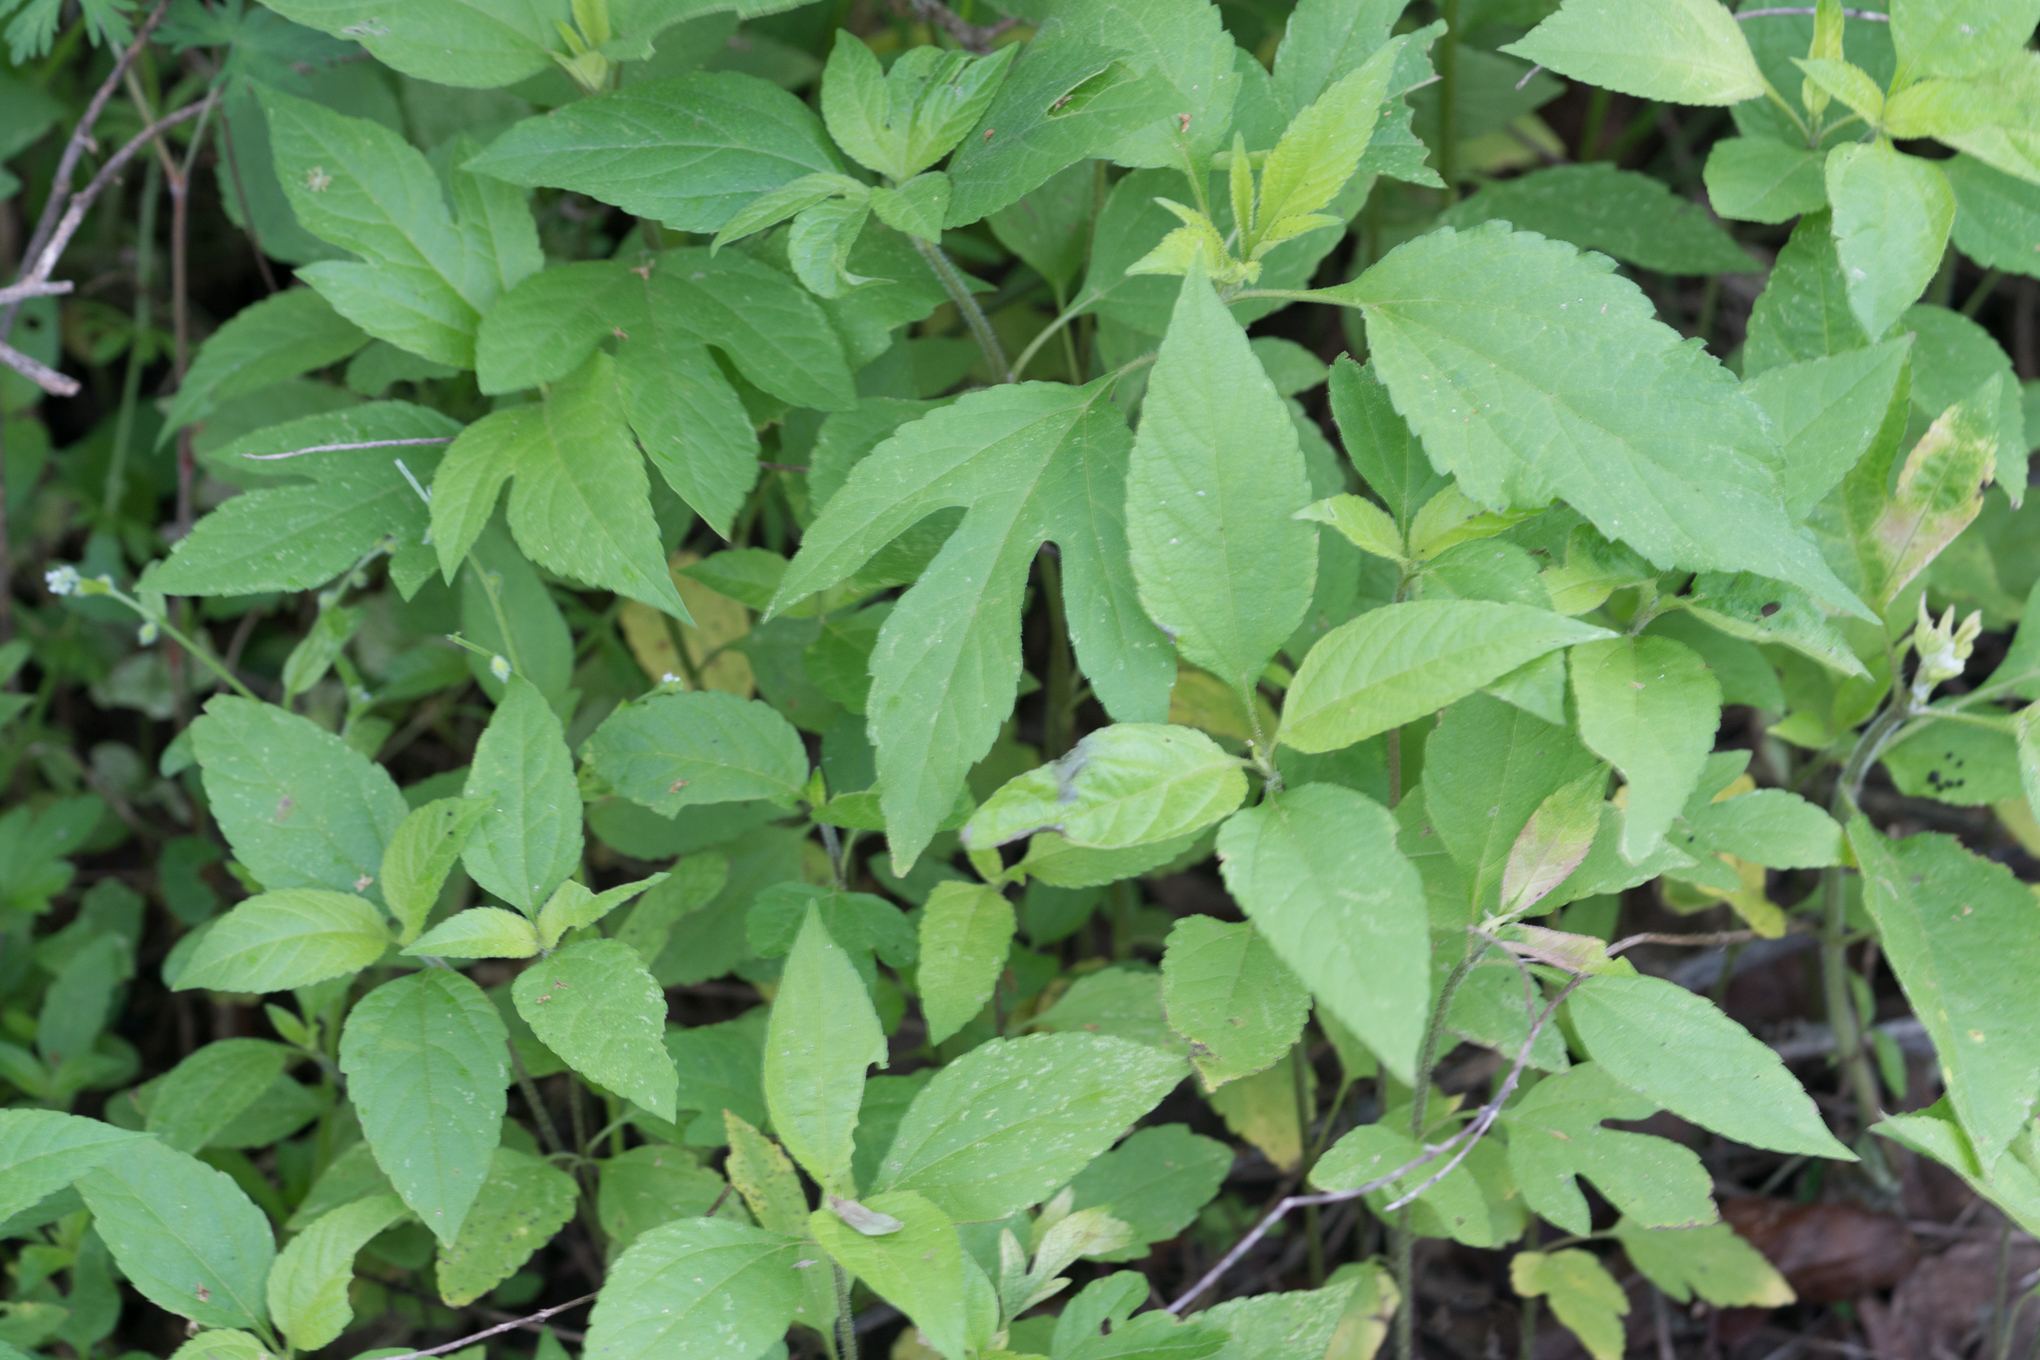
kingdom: Plantae
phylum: Tracheophyta
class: Magnoliopsida
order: Asterales
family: Asteraceae
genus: Ambrosia
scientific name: Ambrosia trifida
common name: Giant ragweed
